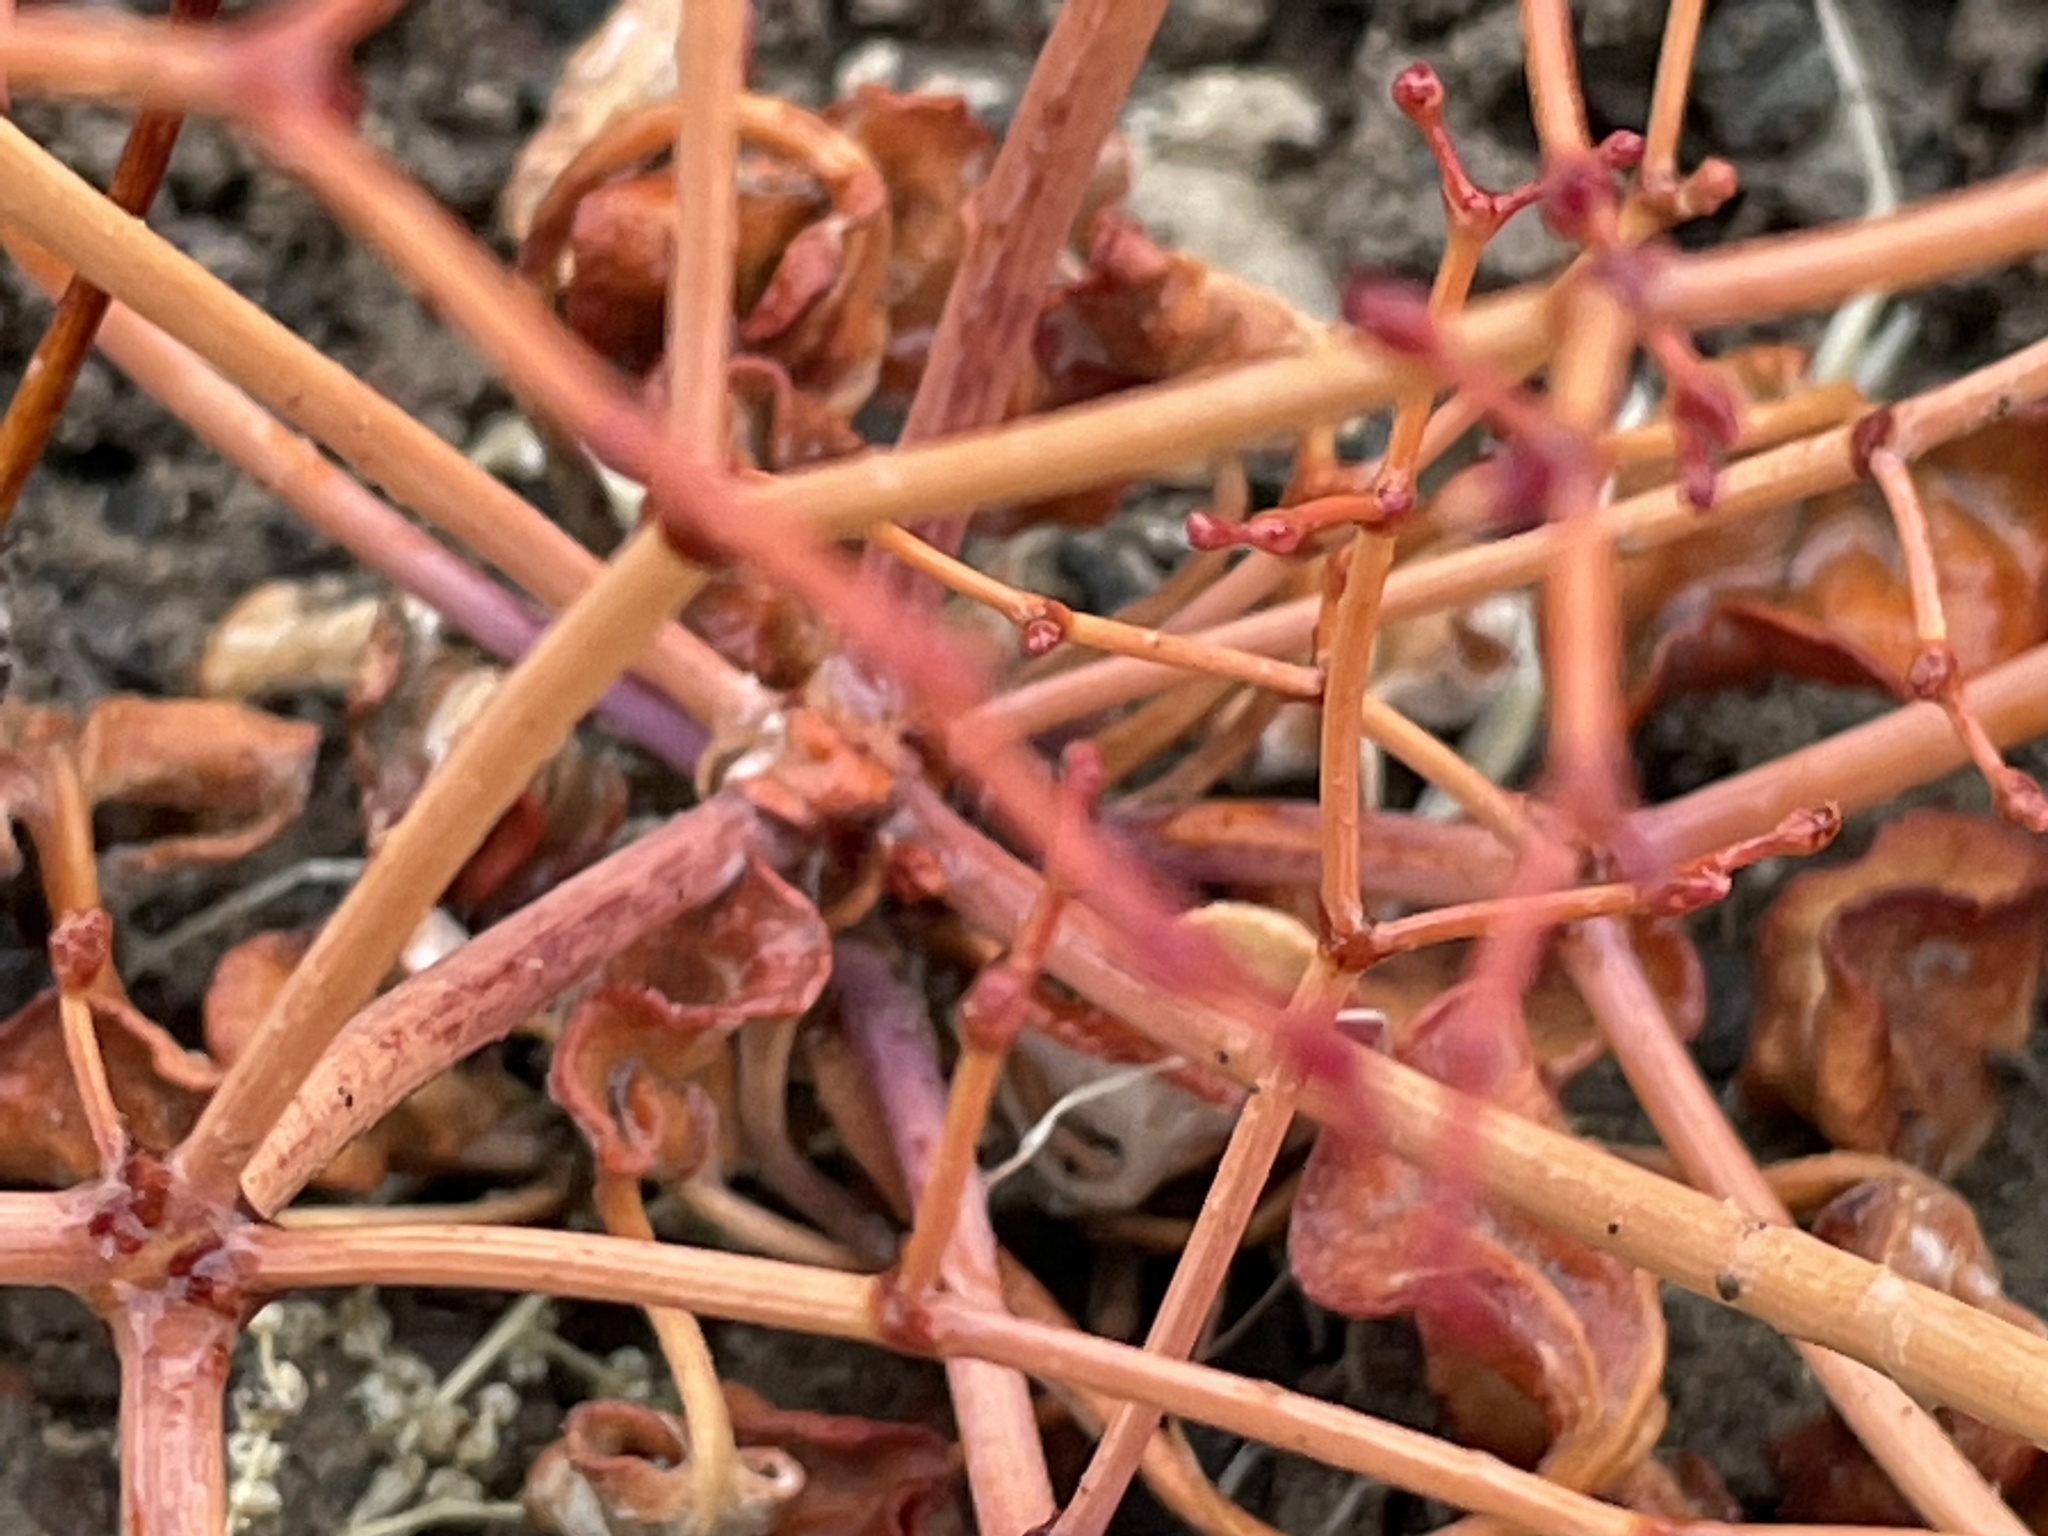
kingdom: Plantae
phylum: Tracheophyta
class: Magnoliopsida
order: Caryophyllales
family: Polygonaceae
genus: Eriogonum
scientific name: Eriogonum deflexum
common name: Skeleton-weed
